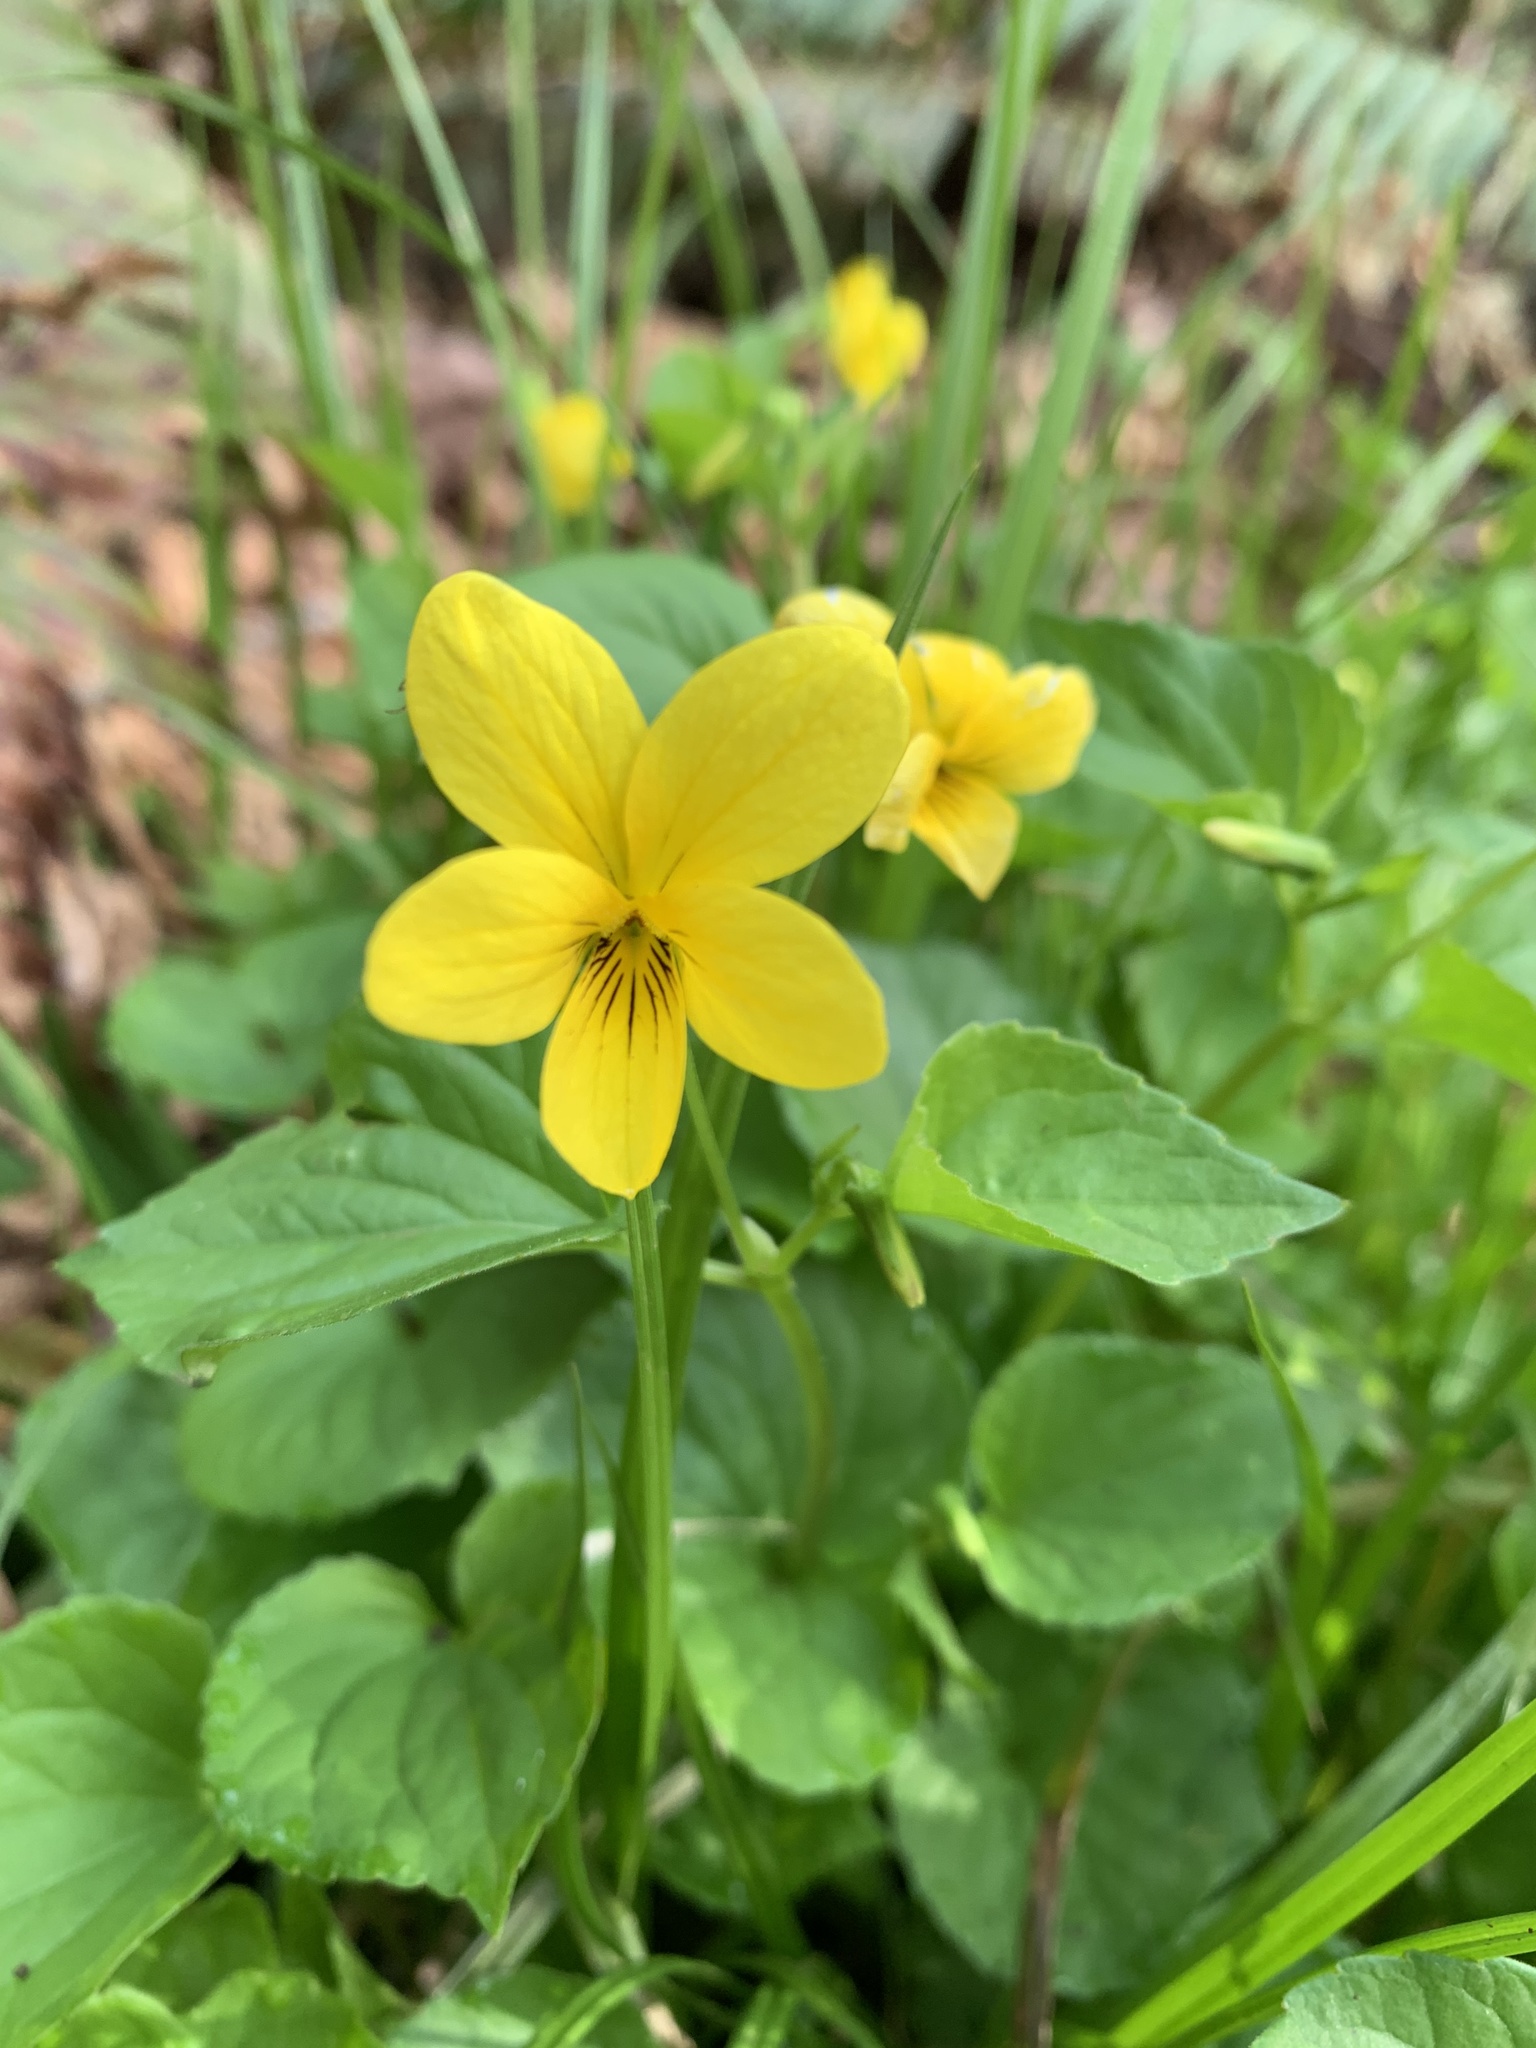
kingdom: Plantae
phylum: Tracheophyta
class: Magnoliopsida
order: Malpighiales
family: Violaceae
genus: Viola
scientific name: Viola glabella
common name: Stream violet
